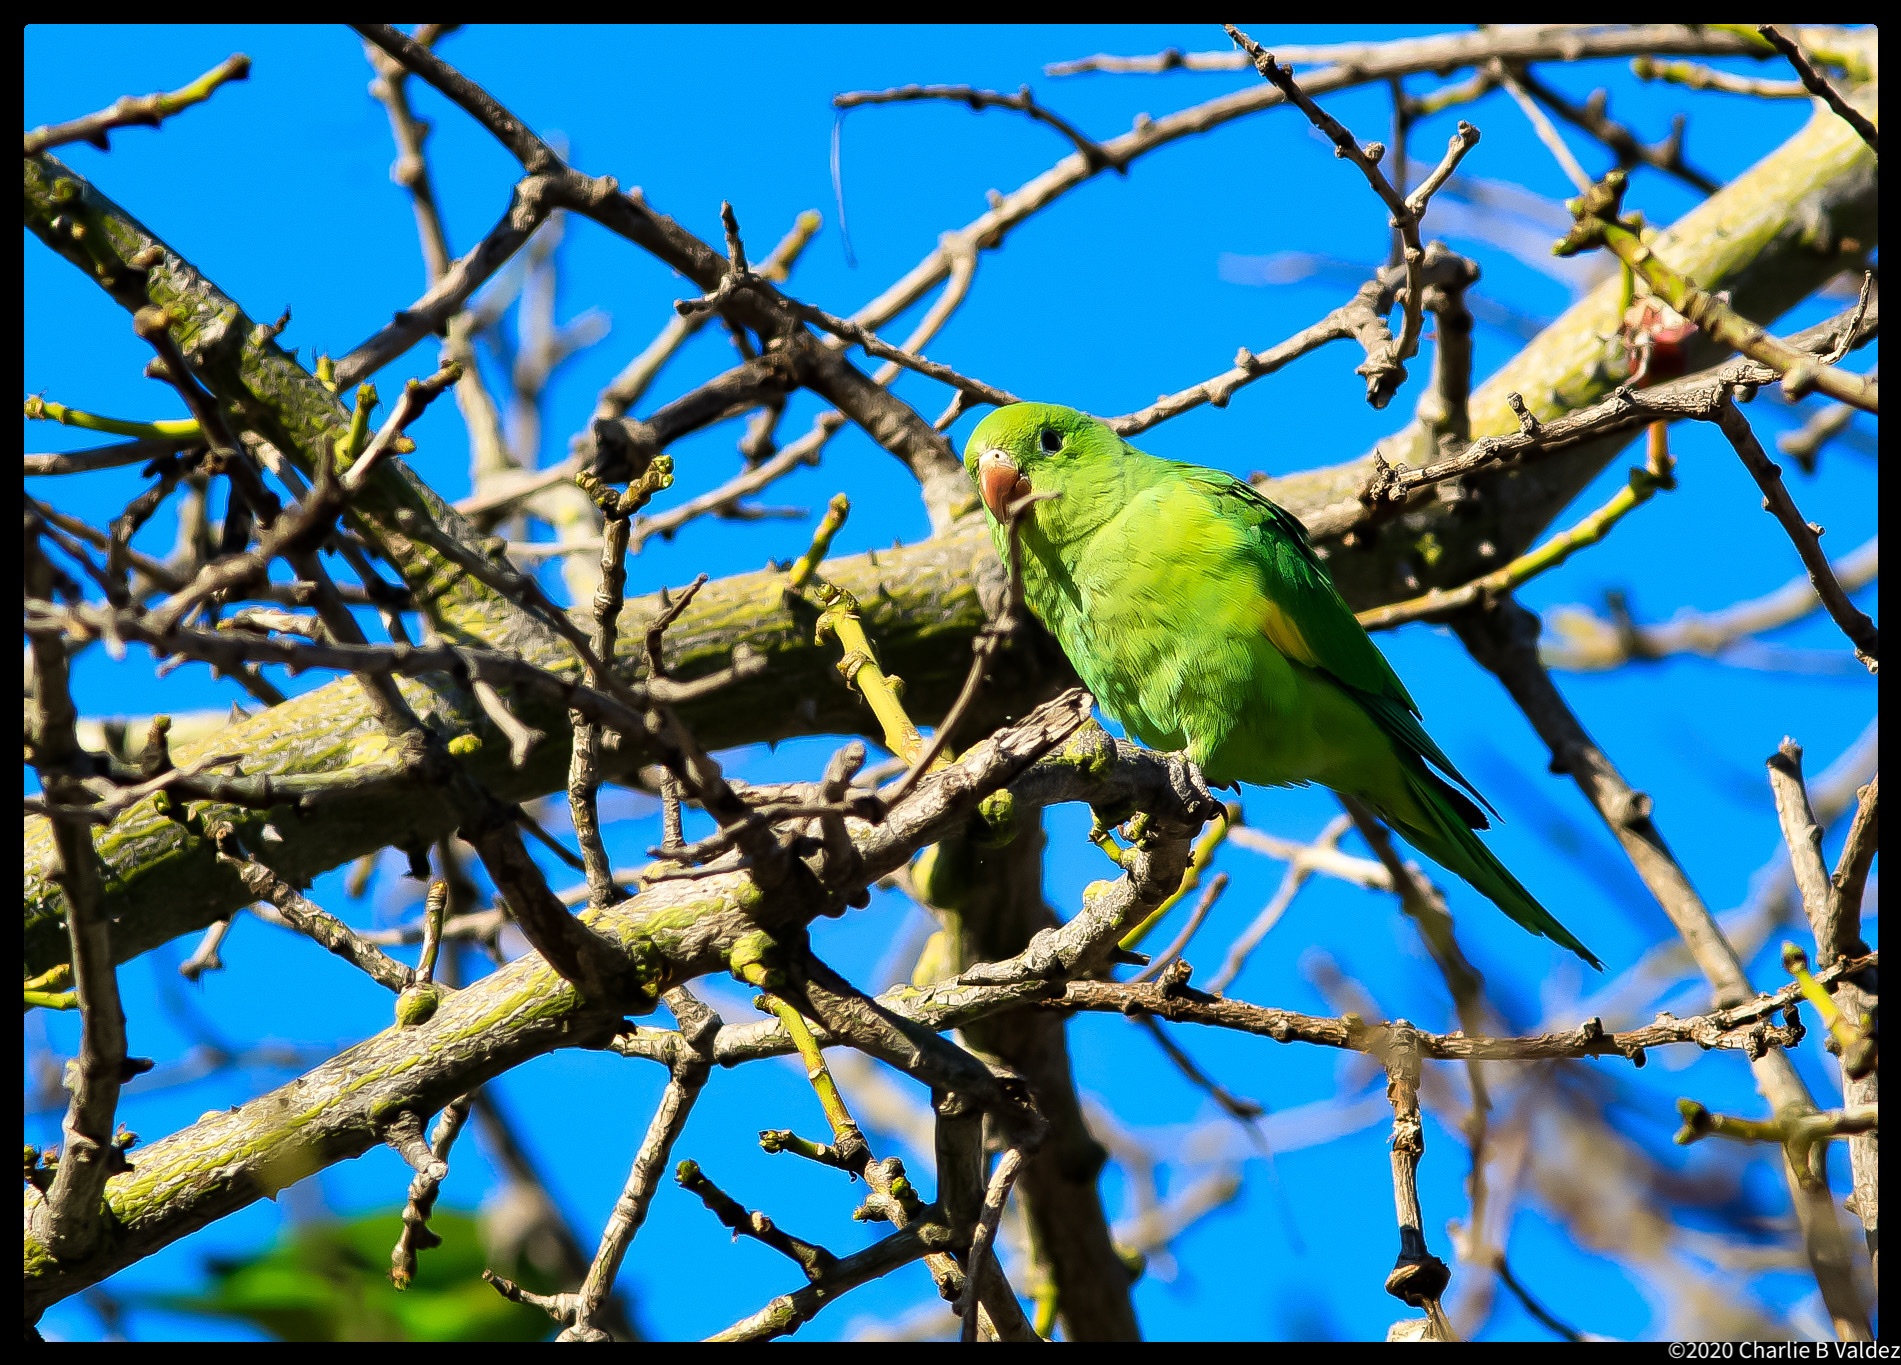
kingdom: Animalia
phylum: Chordata
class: Aves
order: Psittaciformes
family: Psittacidae
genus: Brotogeris
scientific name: Brotogeris chiriri
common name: Yellow-chevroned parakeet
